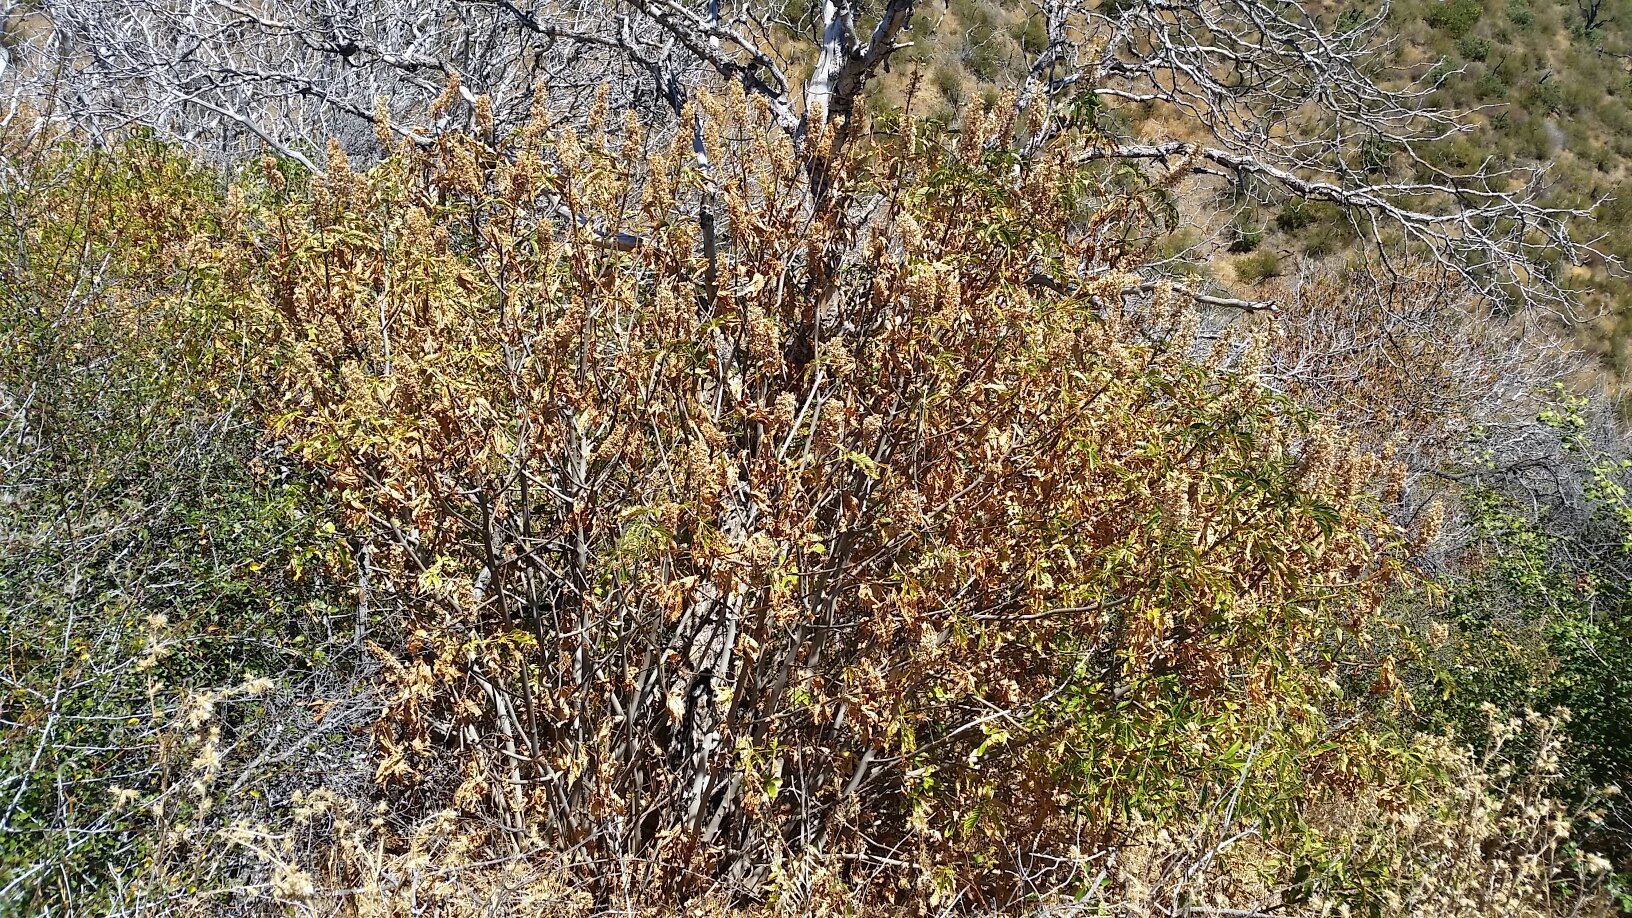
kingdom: Plantae
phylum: Tracheophyta
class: Magnoliopsida
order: Sapindales
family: Sapindaceae
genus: Aesculus
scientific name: Aesculus californica
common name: California buckeye
